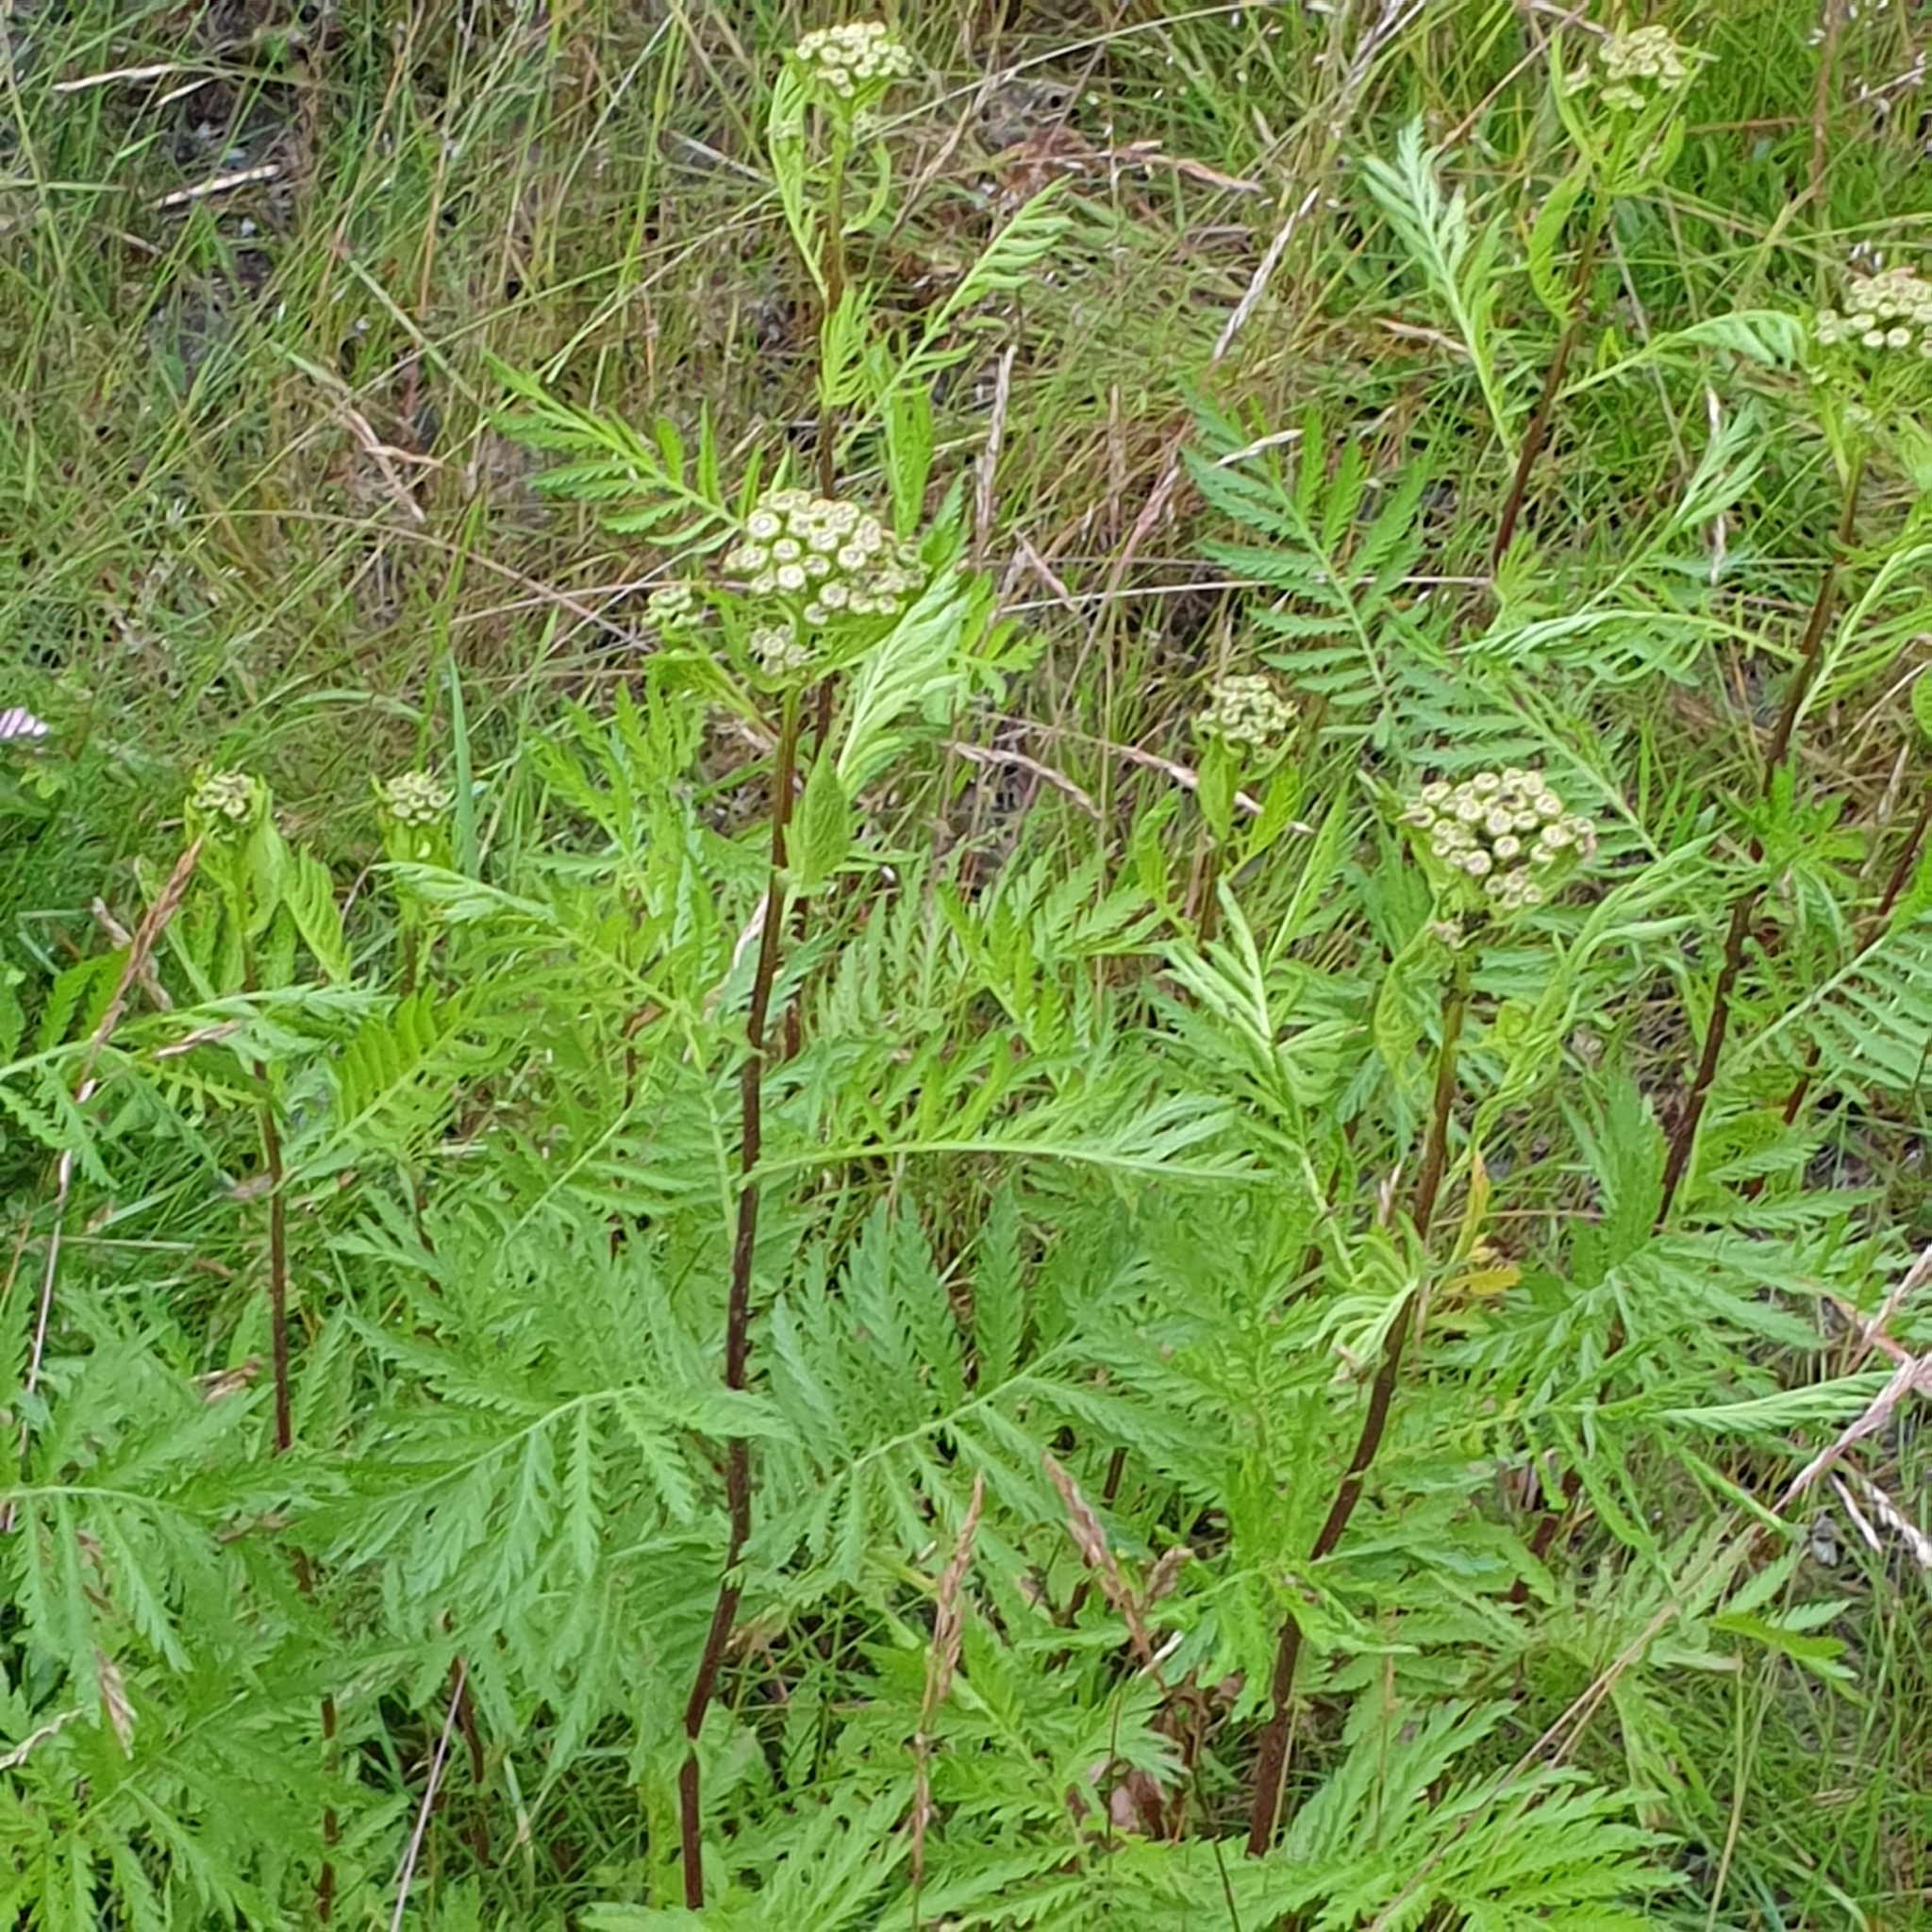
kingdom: Plantae
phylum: Tracheophyta
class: Magnoliopsida
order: Asterales
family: Asteraceae
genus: Tanacetum
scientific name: Tanacetum vulgare
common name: Common tansy
